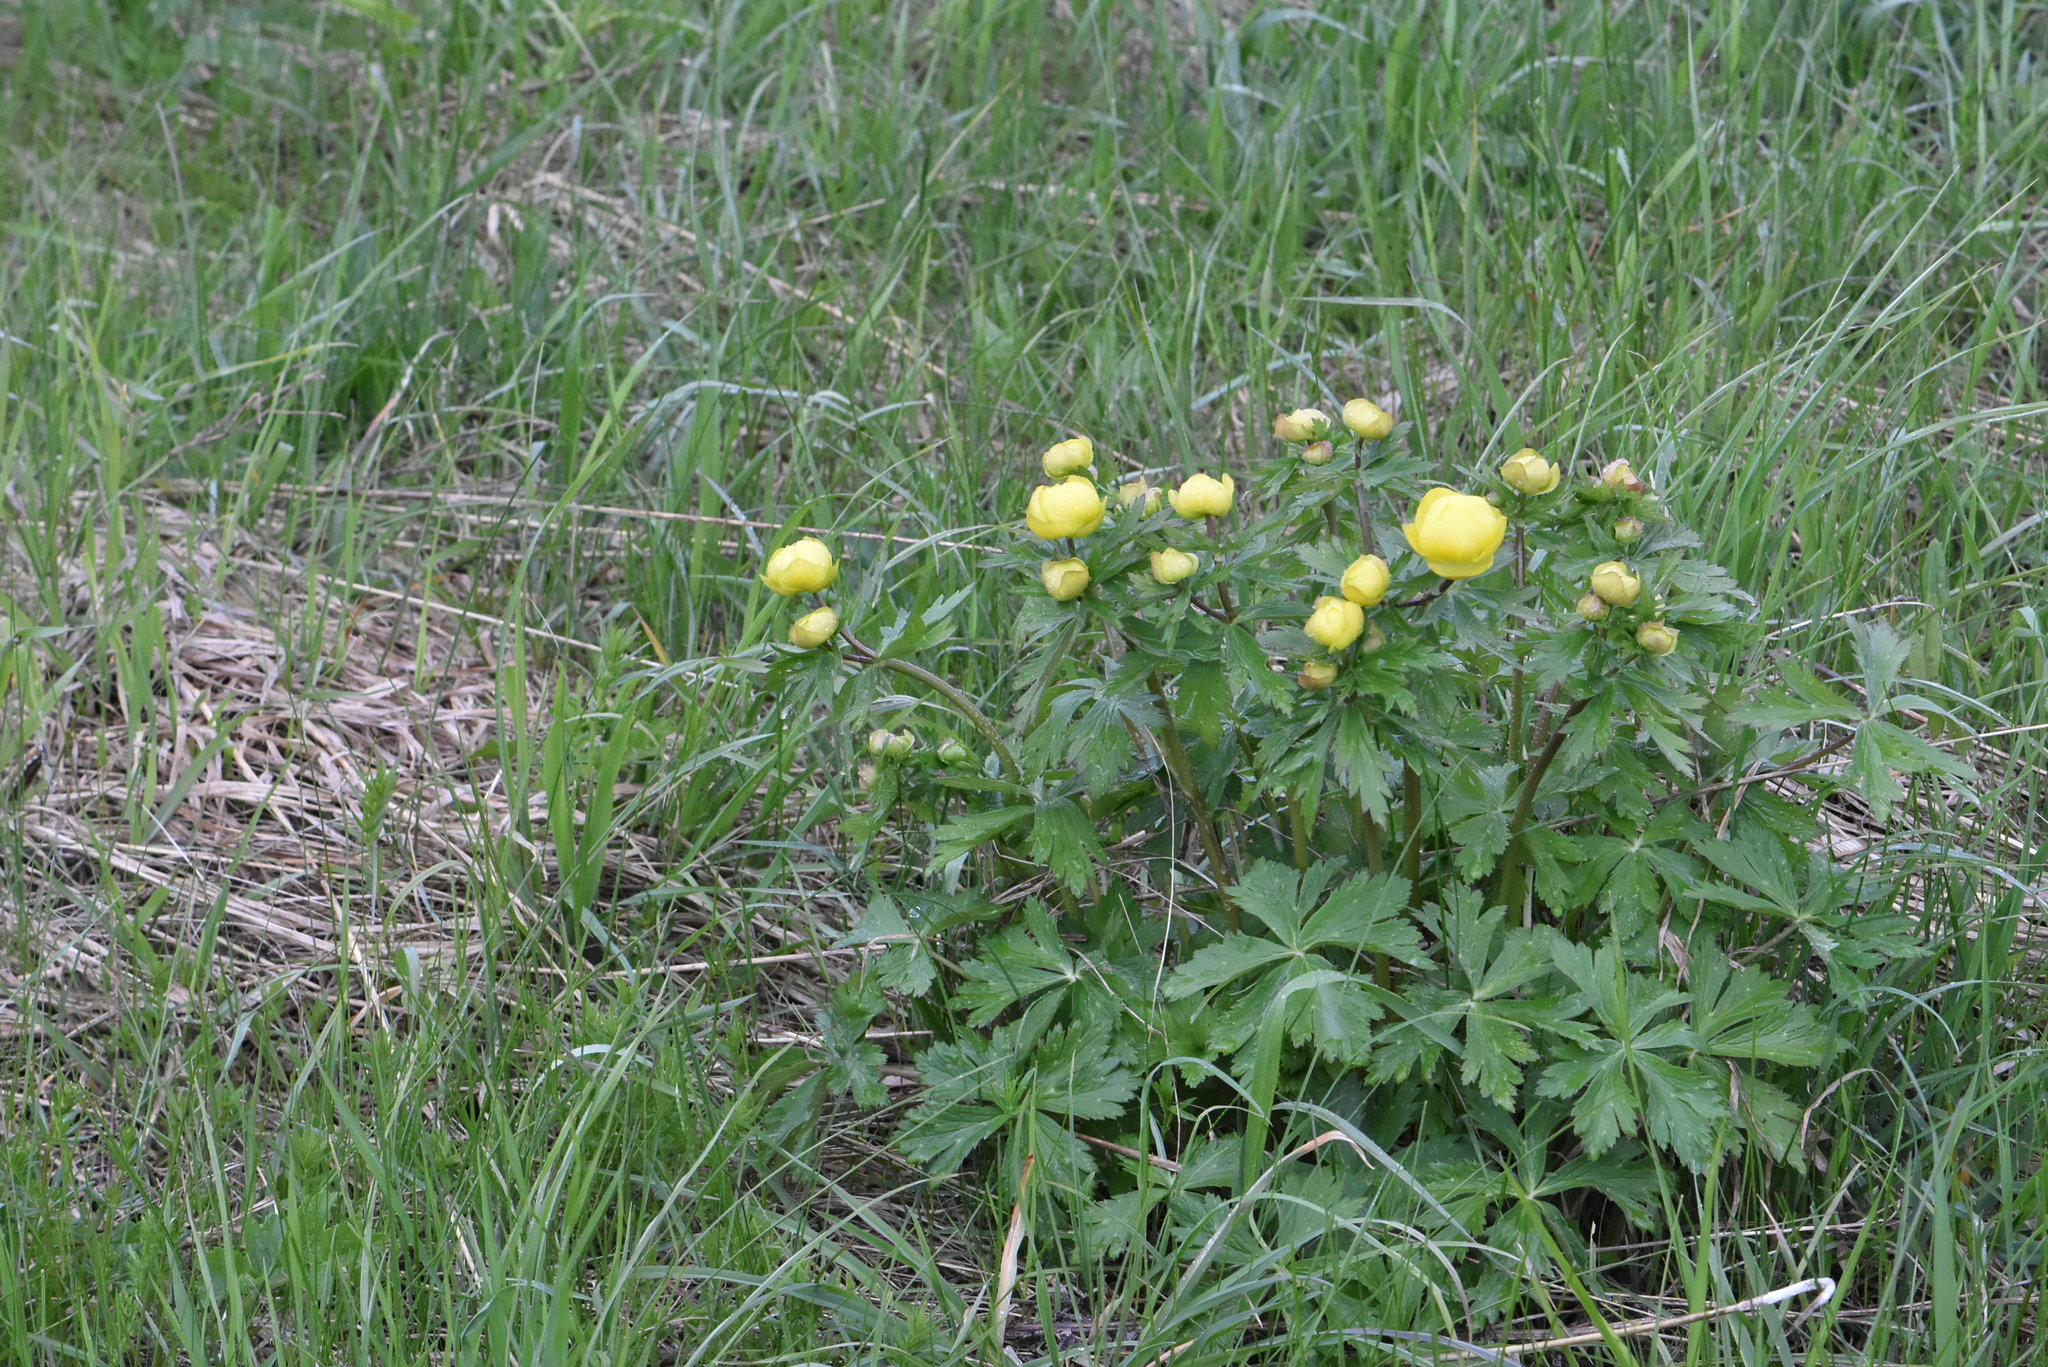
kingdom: Plantae
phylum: Tracheophyta
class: Magnoliopsida
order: Ranunculales
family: Ranunculaceae
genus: Trollius
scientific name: Trollius europaeus
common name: European globeflower
